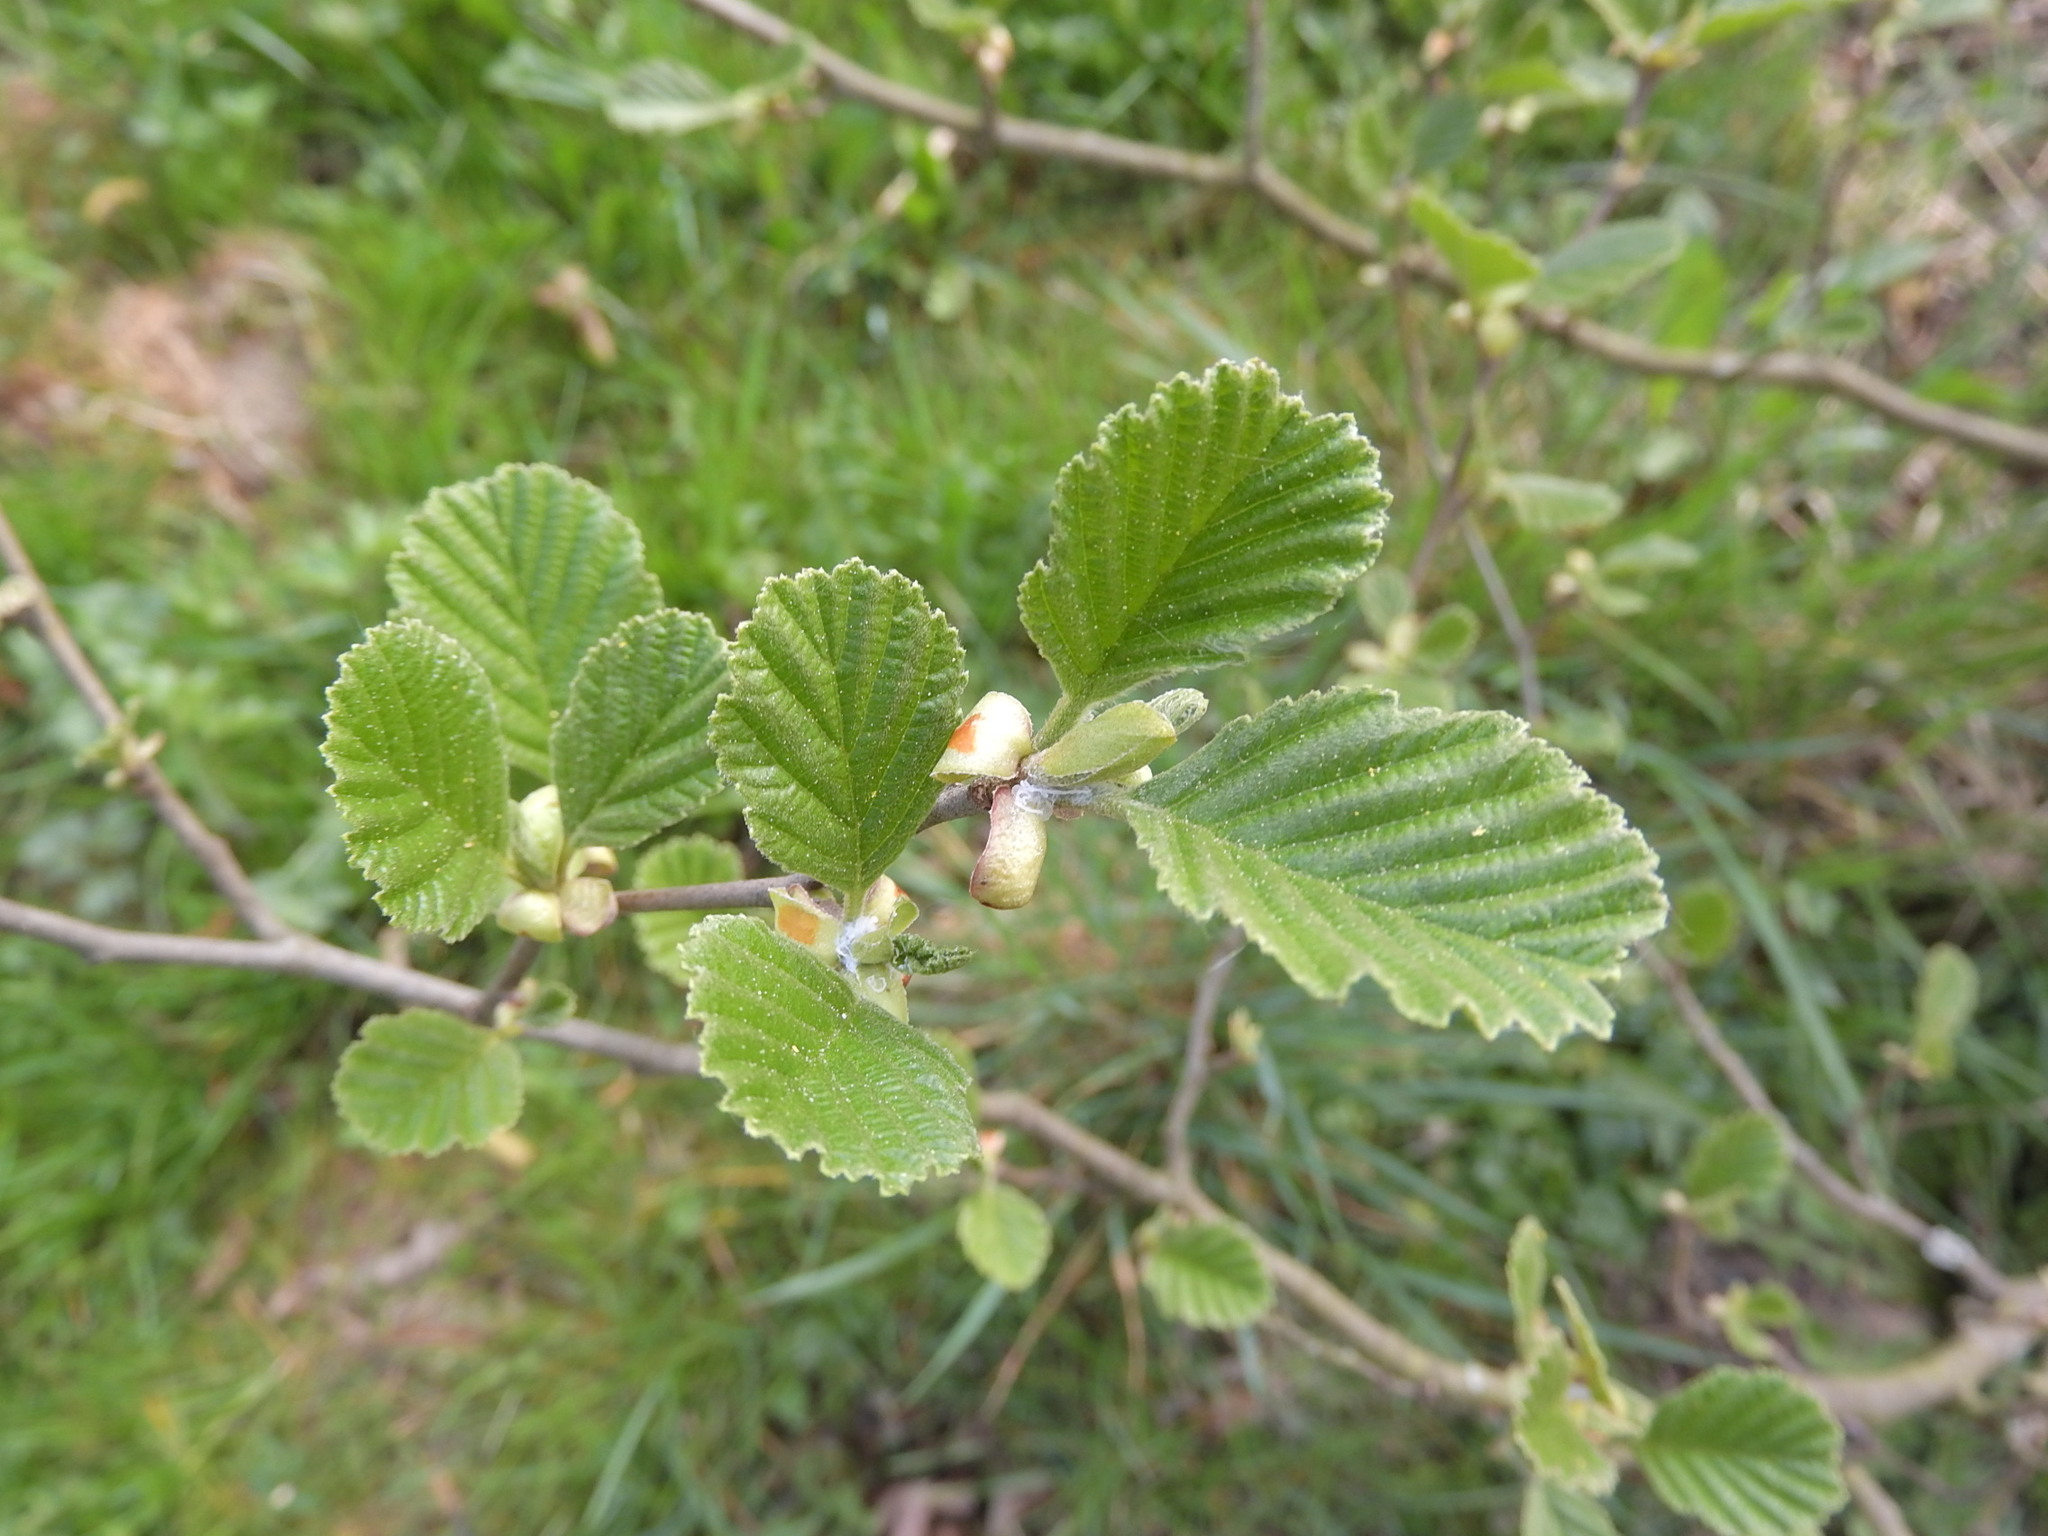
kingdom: Plantae
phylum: Tracheophyta
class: Magnoliopsida
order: Fagales
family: Betulaceae
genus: Alnus
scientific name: Alnus glutinosa
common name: Black alder
